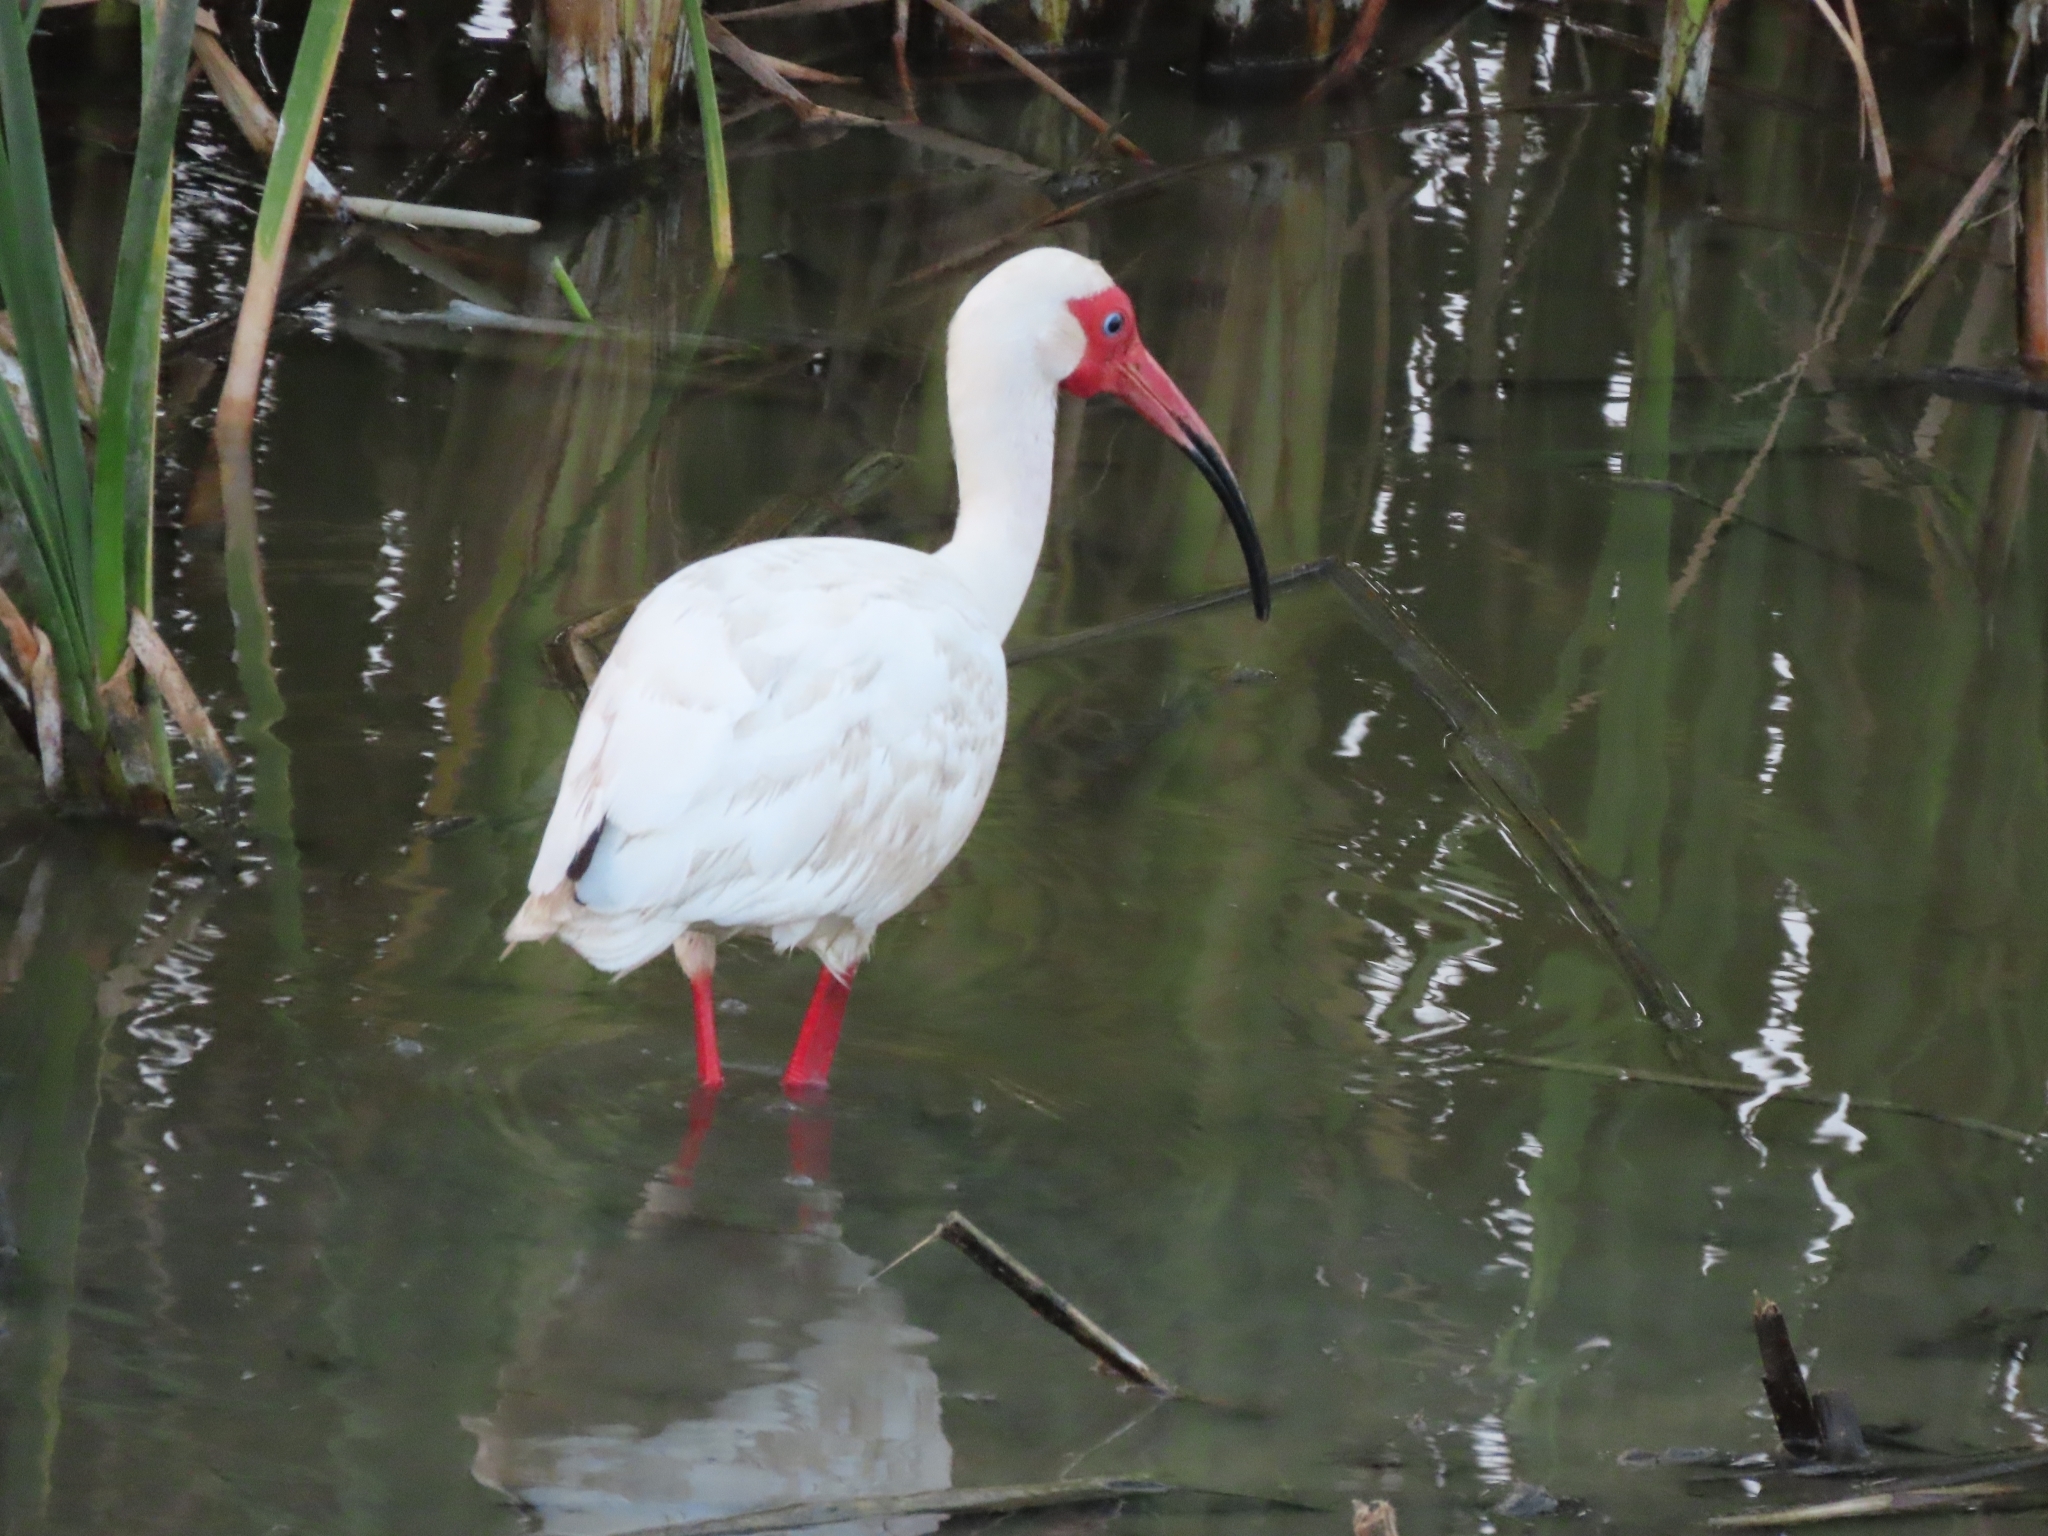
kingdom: Animalia
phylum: Chordata
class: Aves
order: Pelecaniformes
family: Threskiornithidae
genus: Eudocimus
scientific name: Eudocimus albus
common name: White ibis
